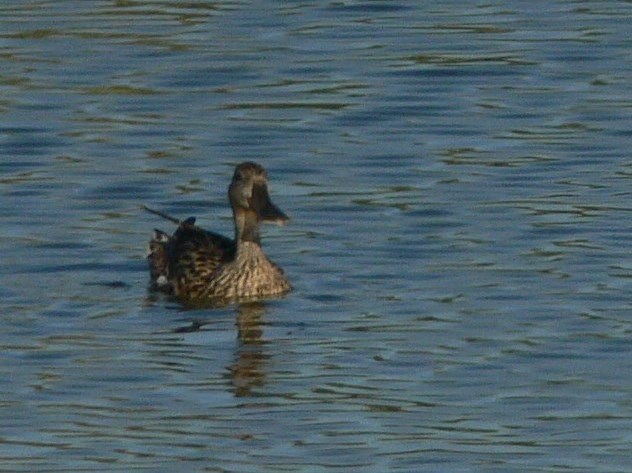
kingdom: Animalia
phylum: Chordata
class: Aves
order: Anseriformes
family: Anatidae
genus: Spatula
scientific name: Spatula clypeata
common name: Northern shoveler
